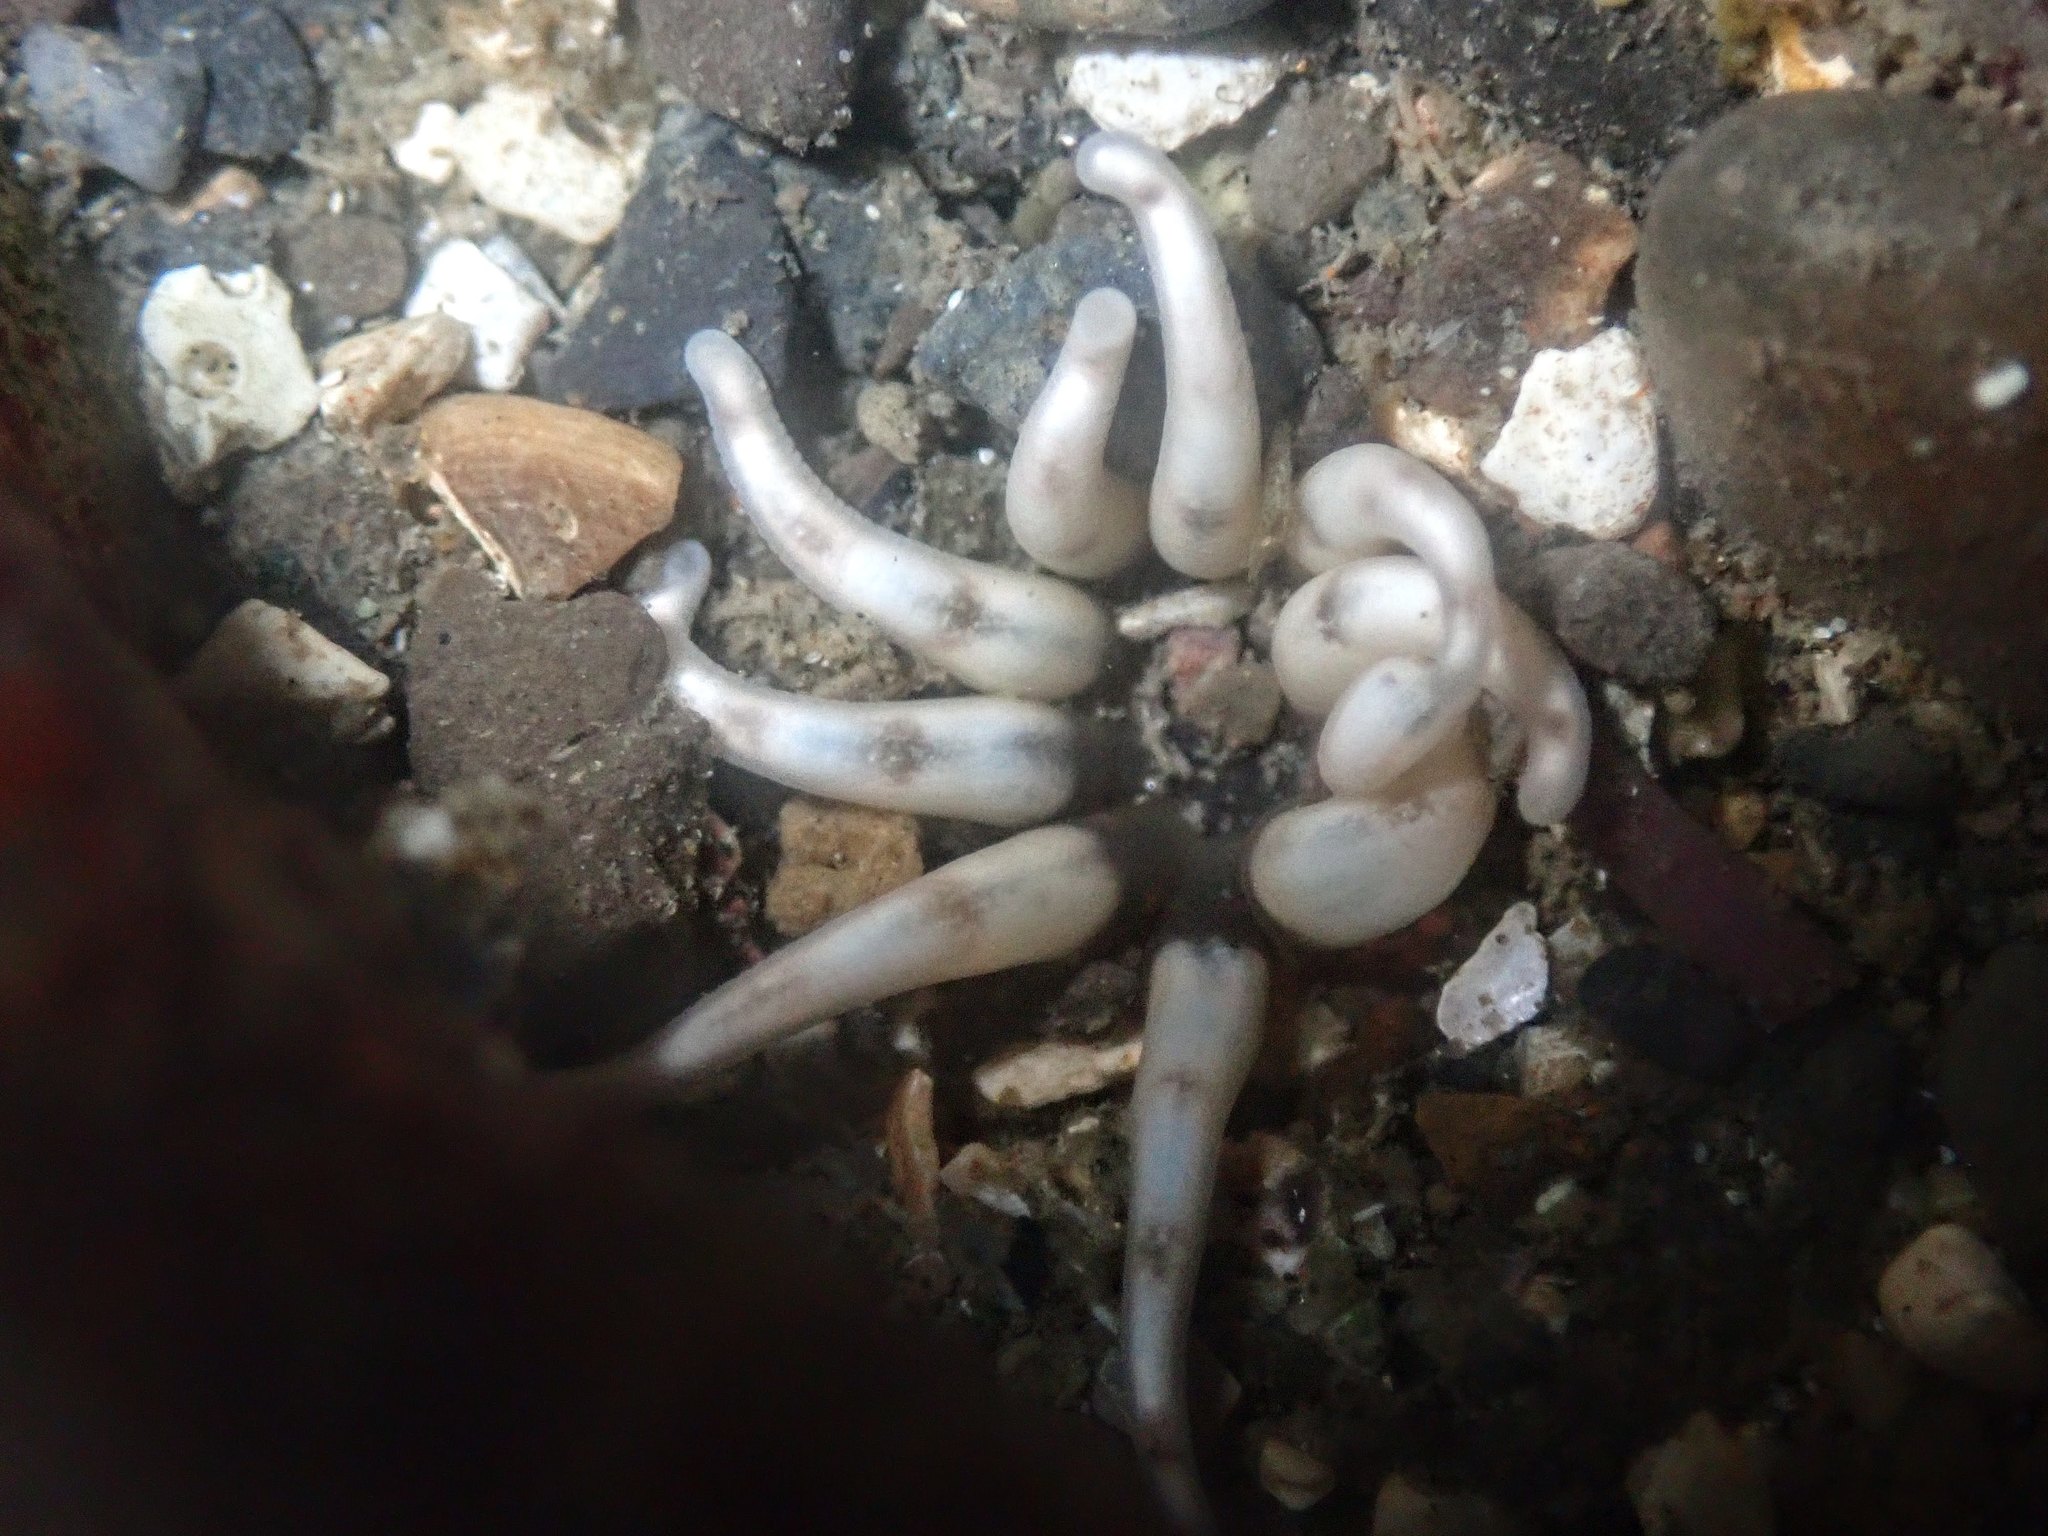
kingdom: Animalia
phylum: Cnidaria
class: Anthozoa
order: Actiniaria
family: Halcampidae
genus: Halcampa
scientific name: Halcampa decemtentaculata
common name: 10-tentacle burrowing anemone
